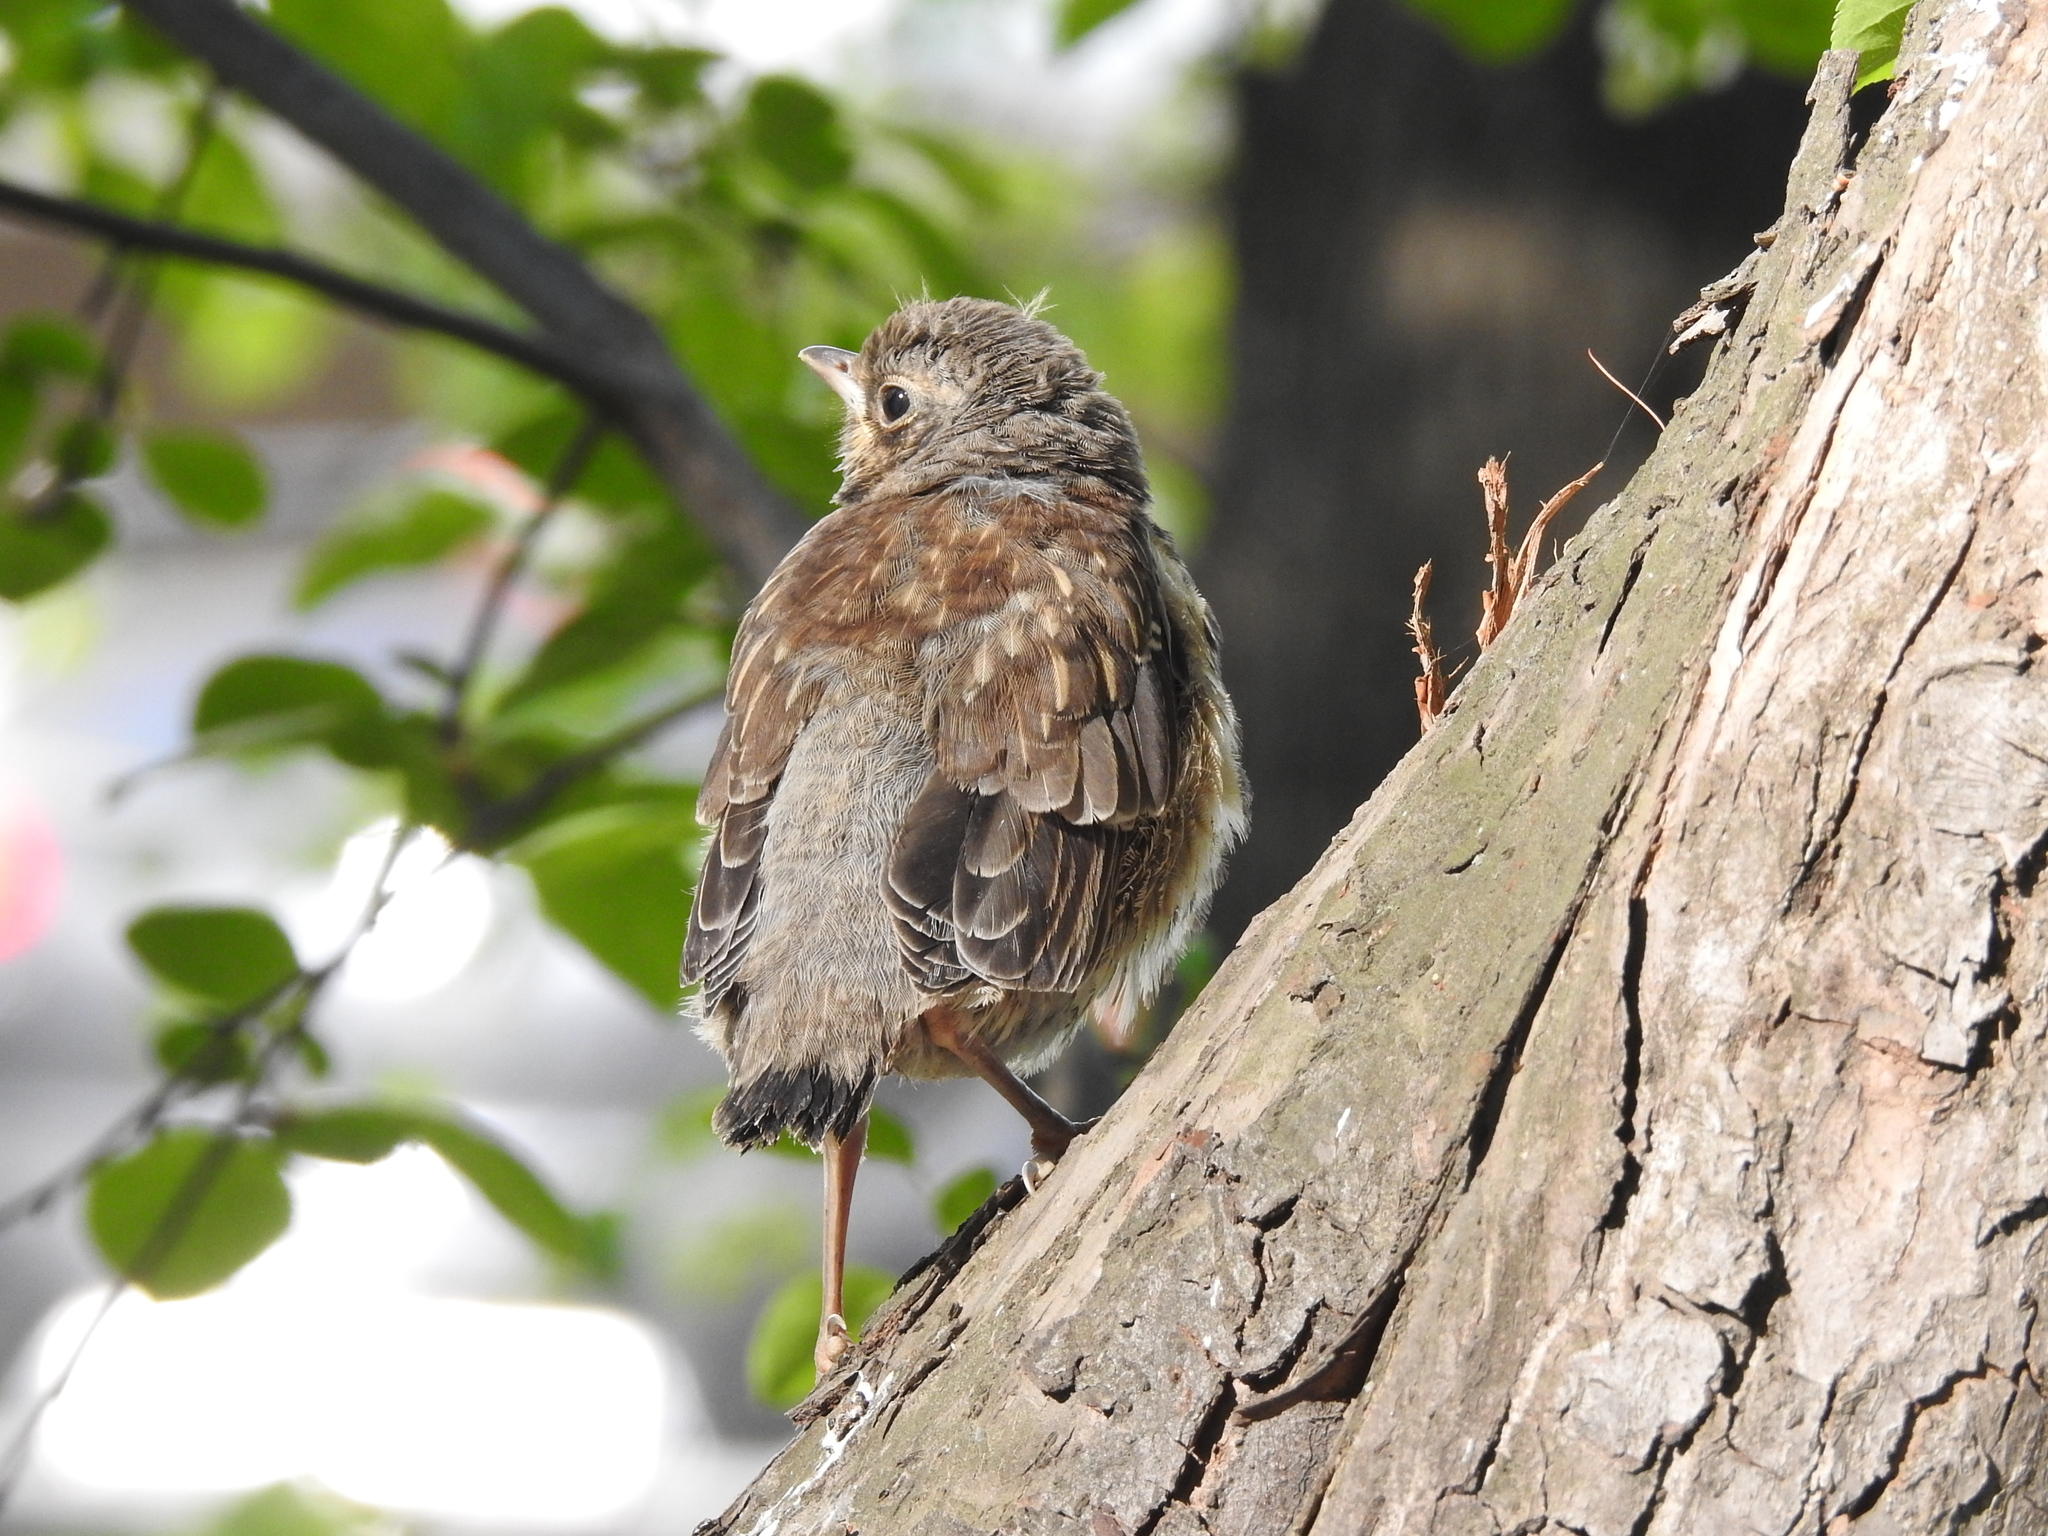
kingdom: Animalia
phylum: Chordata
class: Aves
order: Passeriformes
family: Turdidae
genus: Turdus
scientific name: Turdus pilaris
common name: Fieldfare
